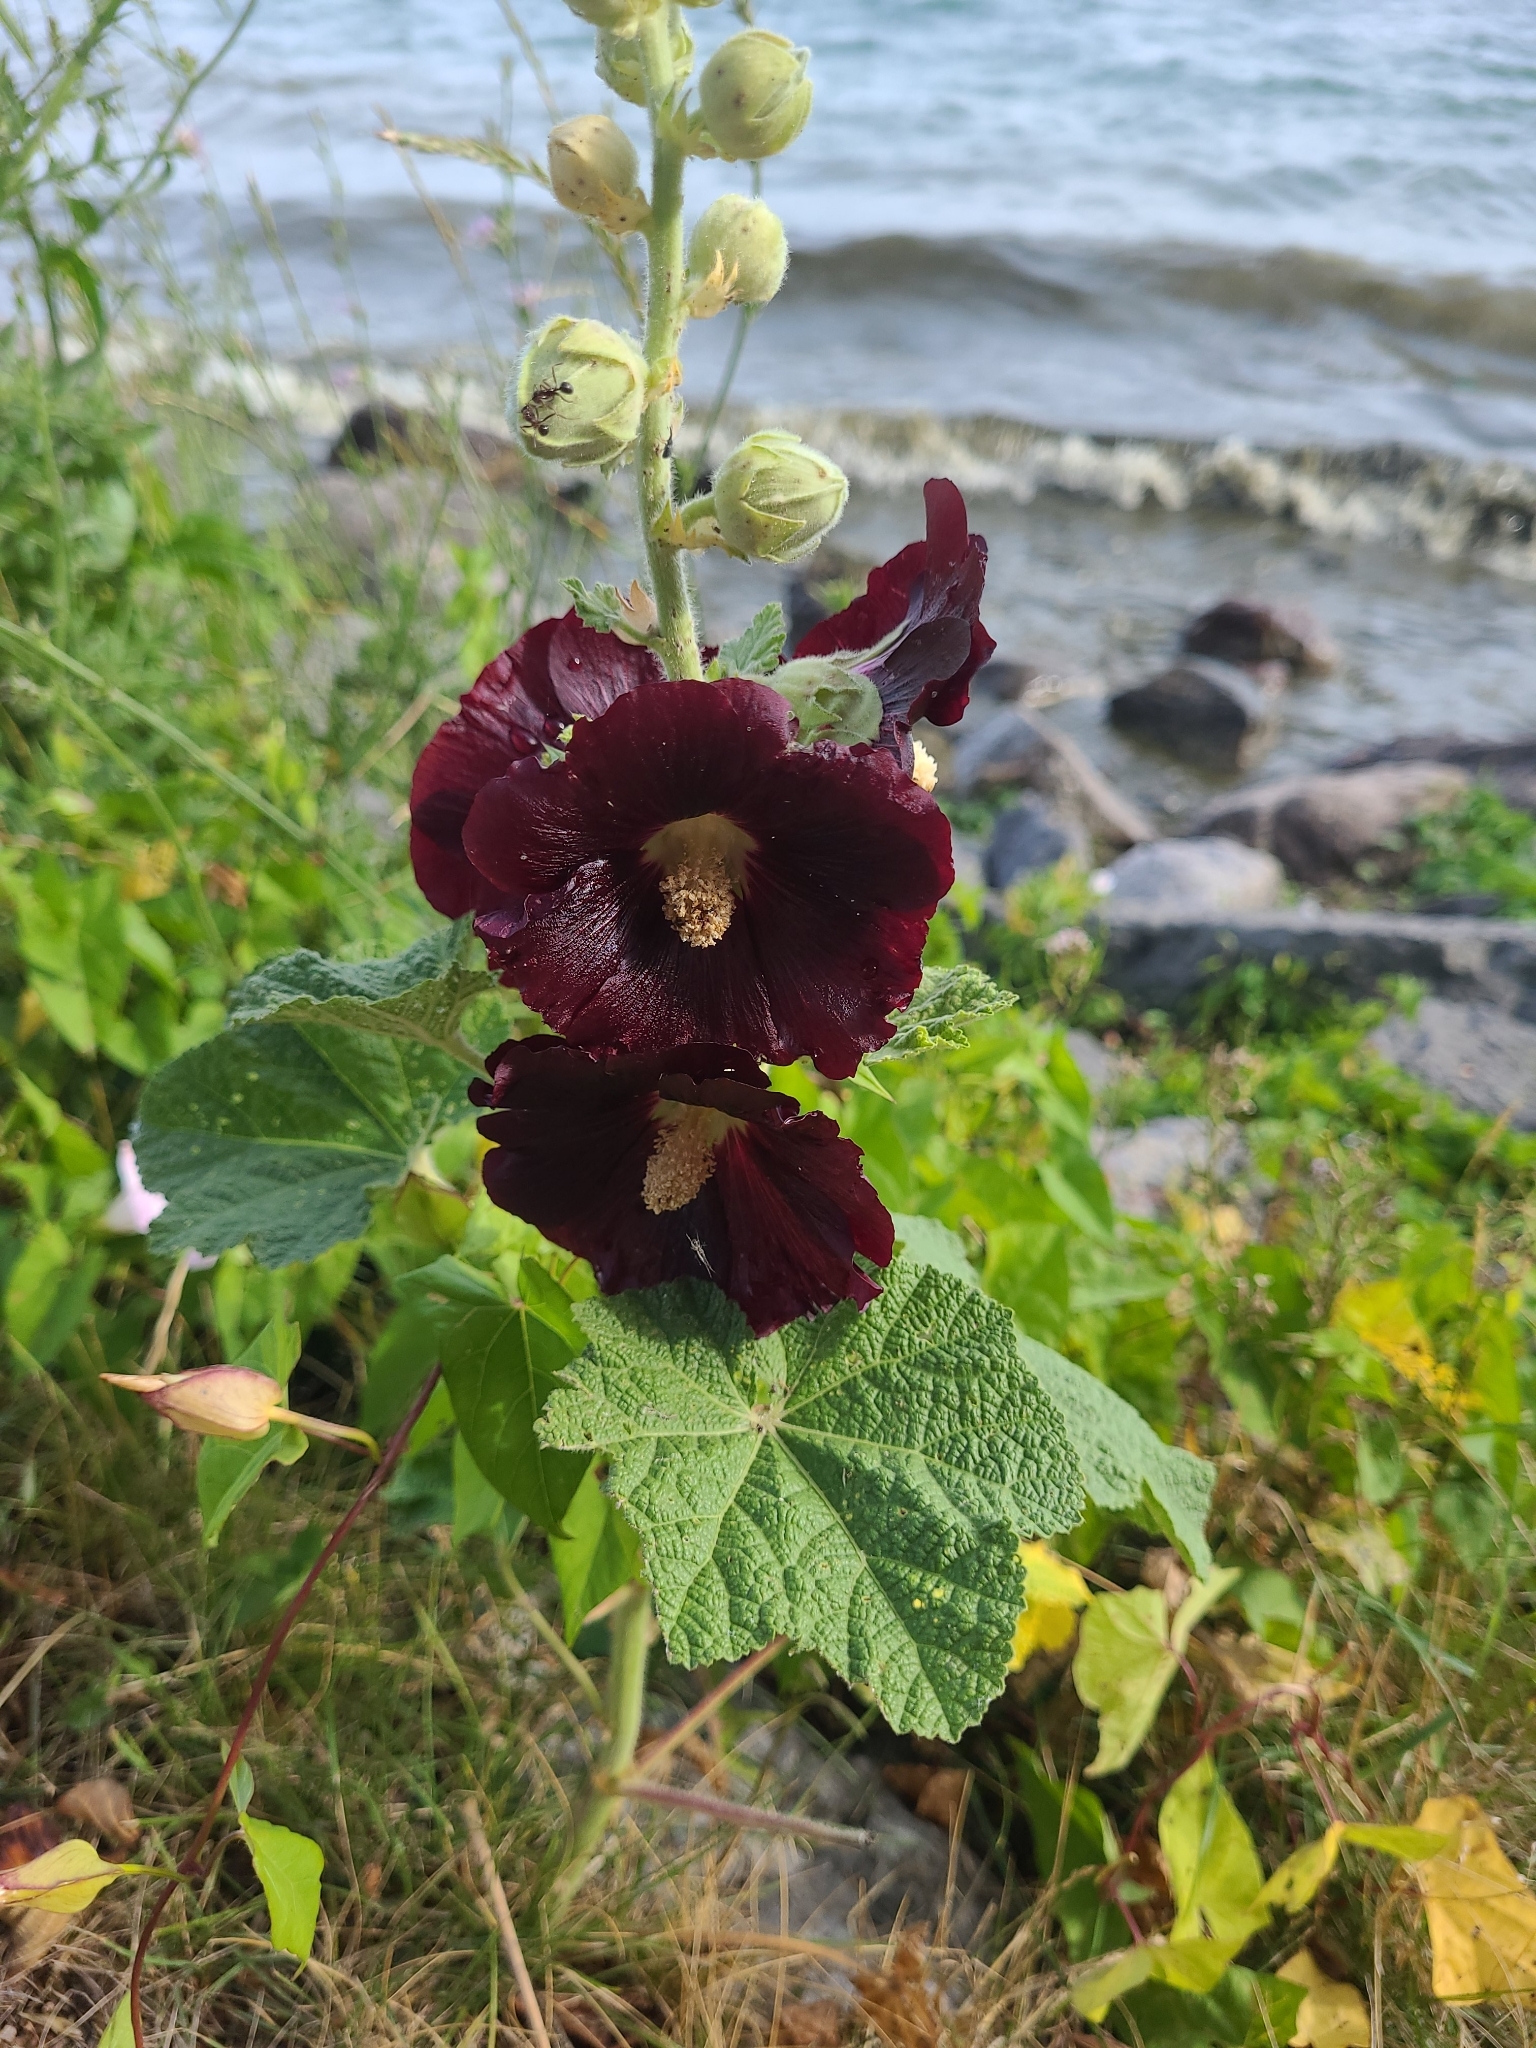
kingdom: Plantae
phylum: Tracheophyta
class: Magnoliopsida
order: Malvales
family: Malvaceae
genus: Alcea
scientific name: Alcea rosea
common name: Hollyhock
